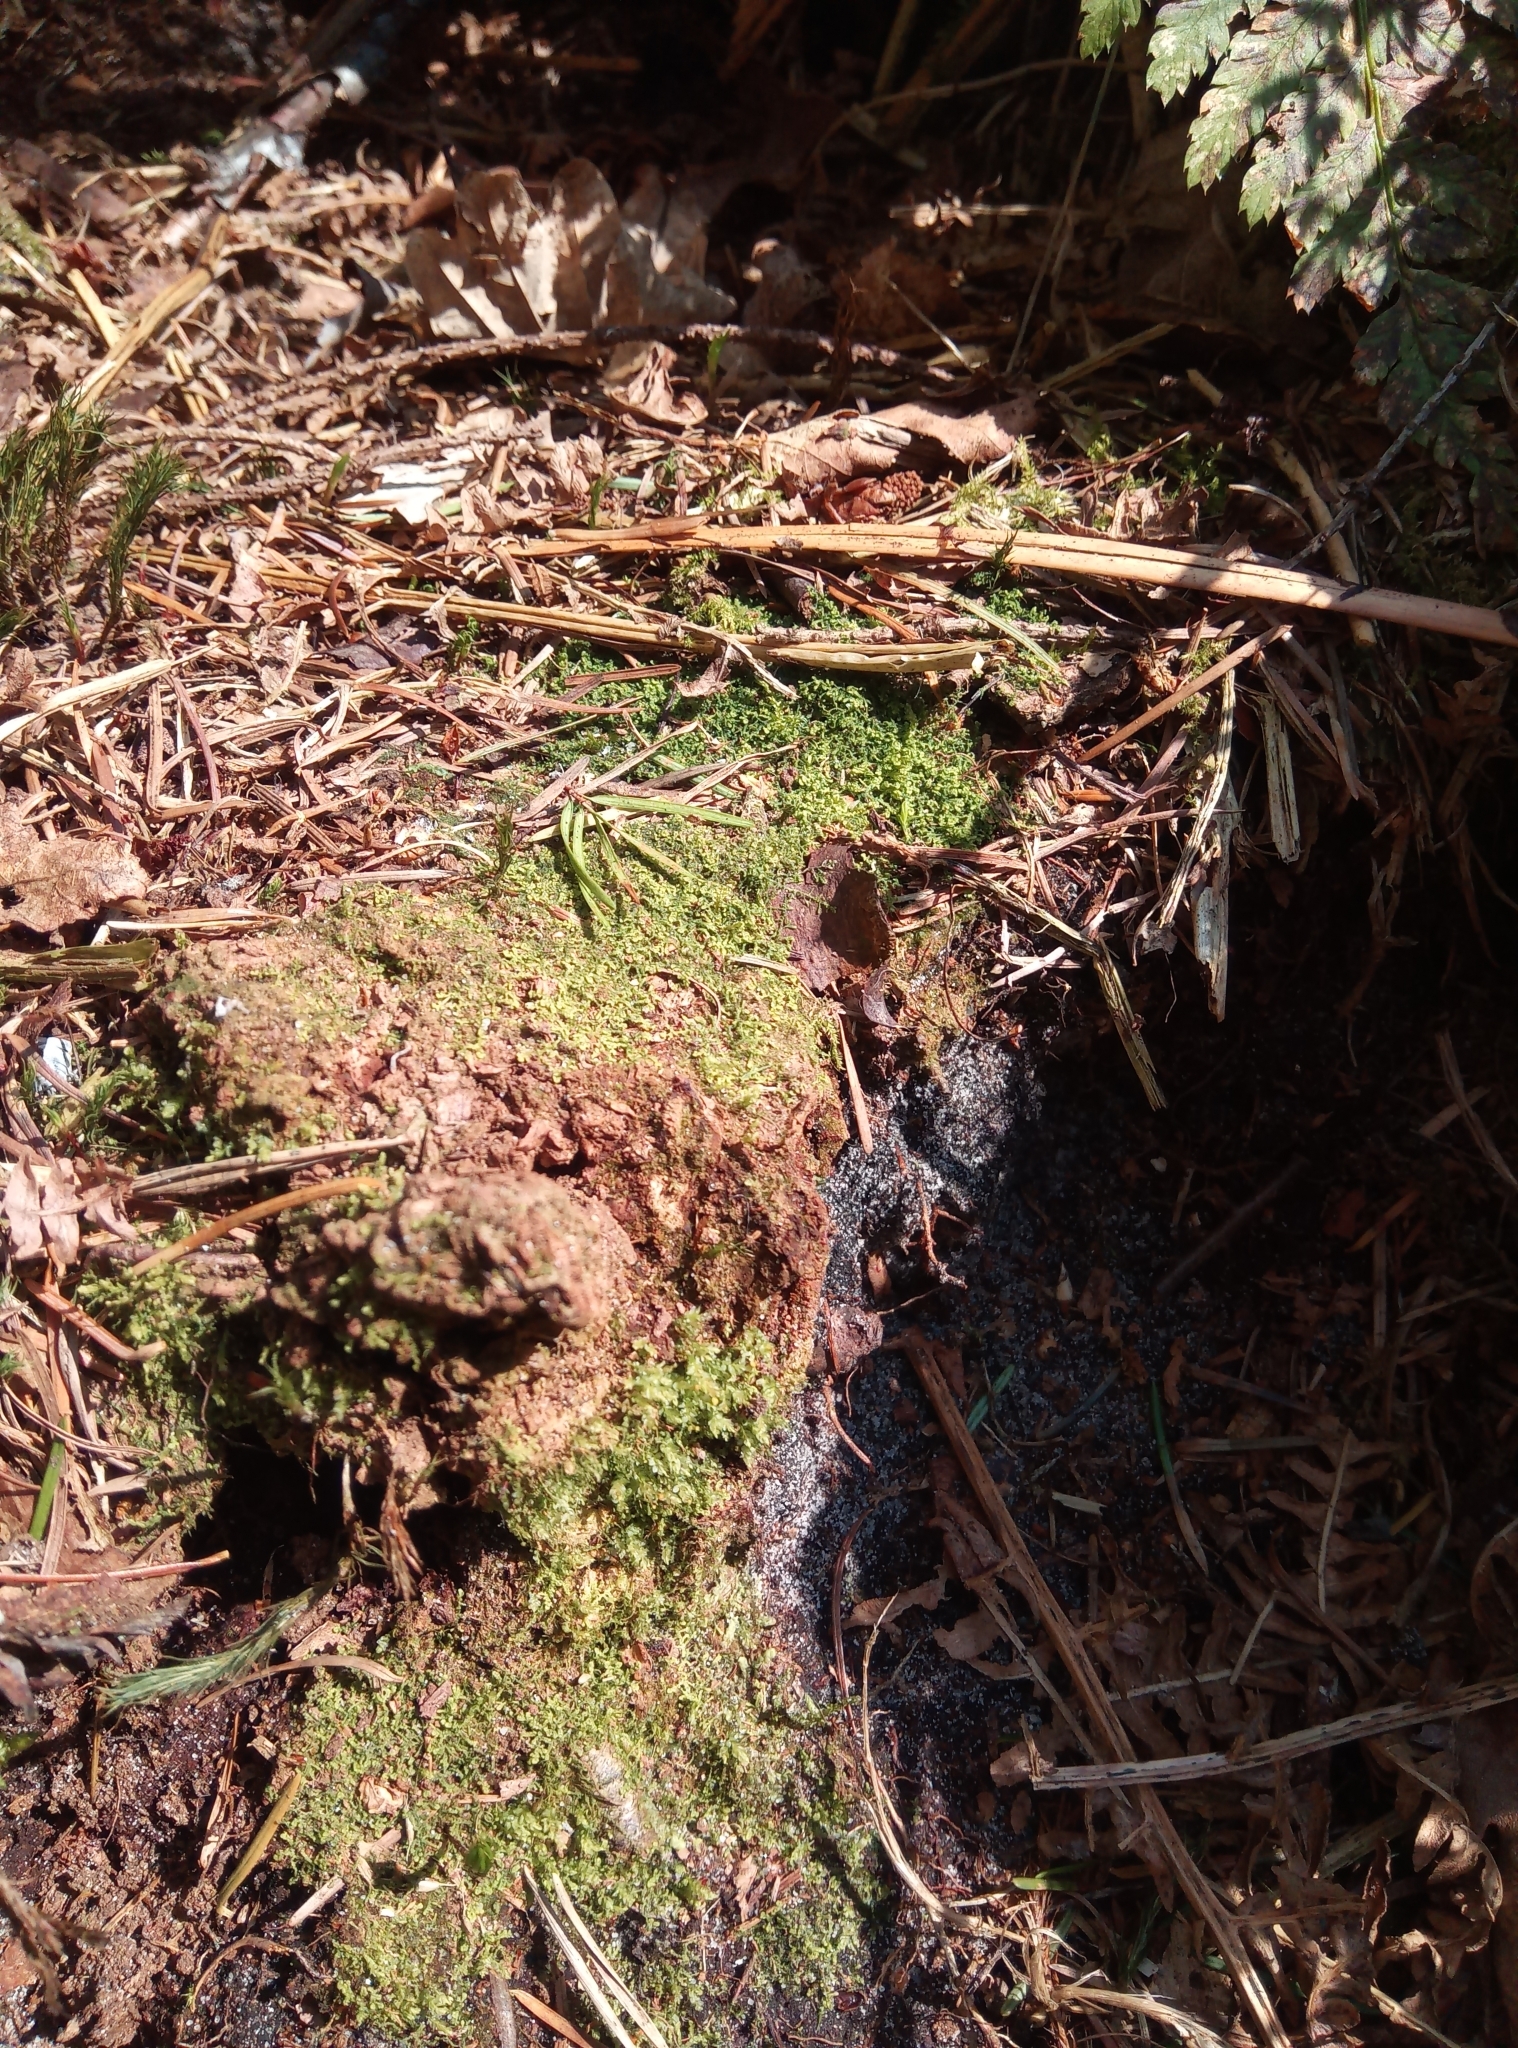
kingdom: Plantae
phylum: Marchantiophyta
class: Jungermanniopsida
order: Jungermanniales
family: Lepidoziaceae
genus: Lepidozia
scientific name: Lepidozia reptans
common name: Creeping fingerwort
